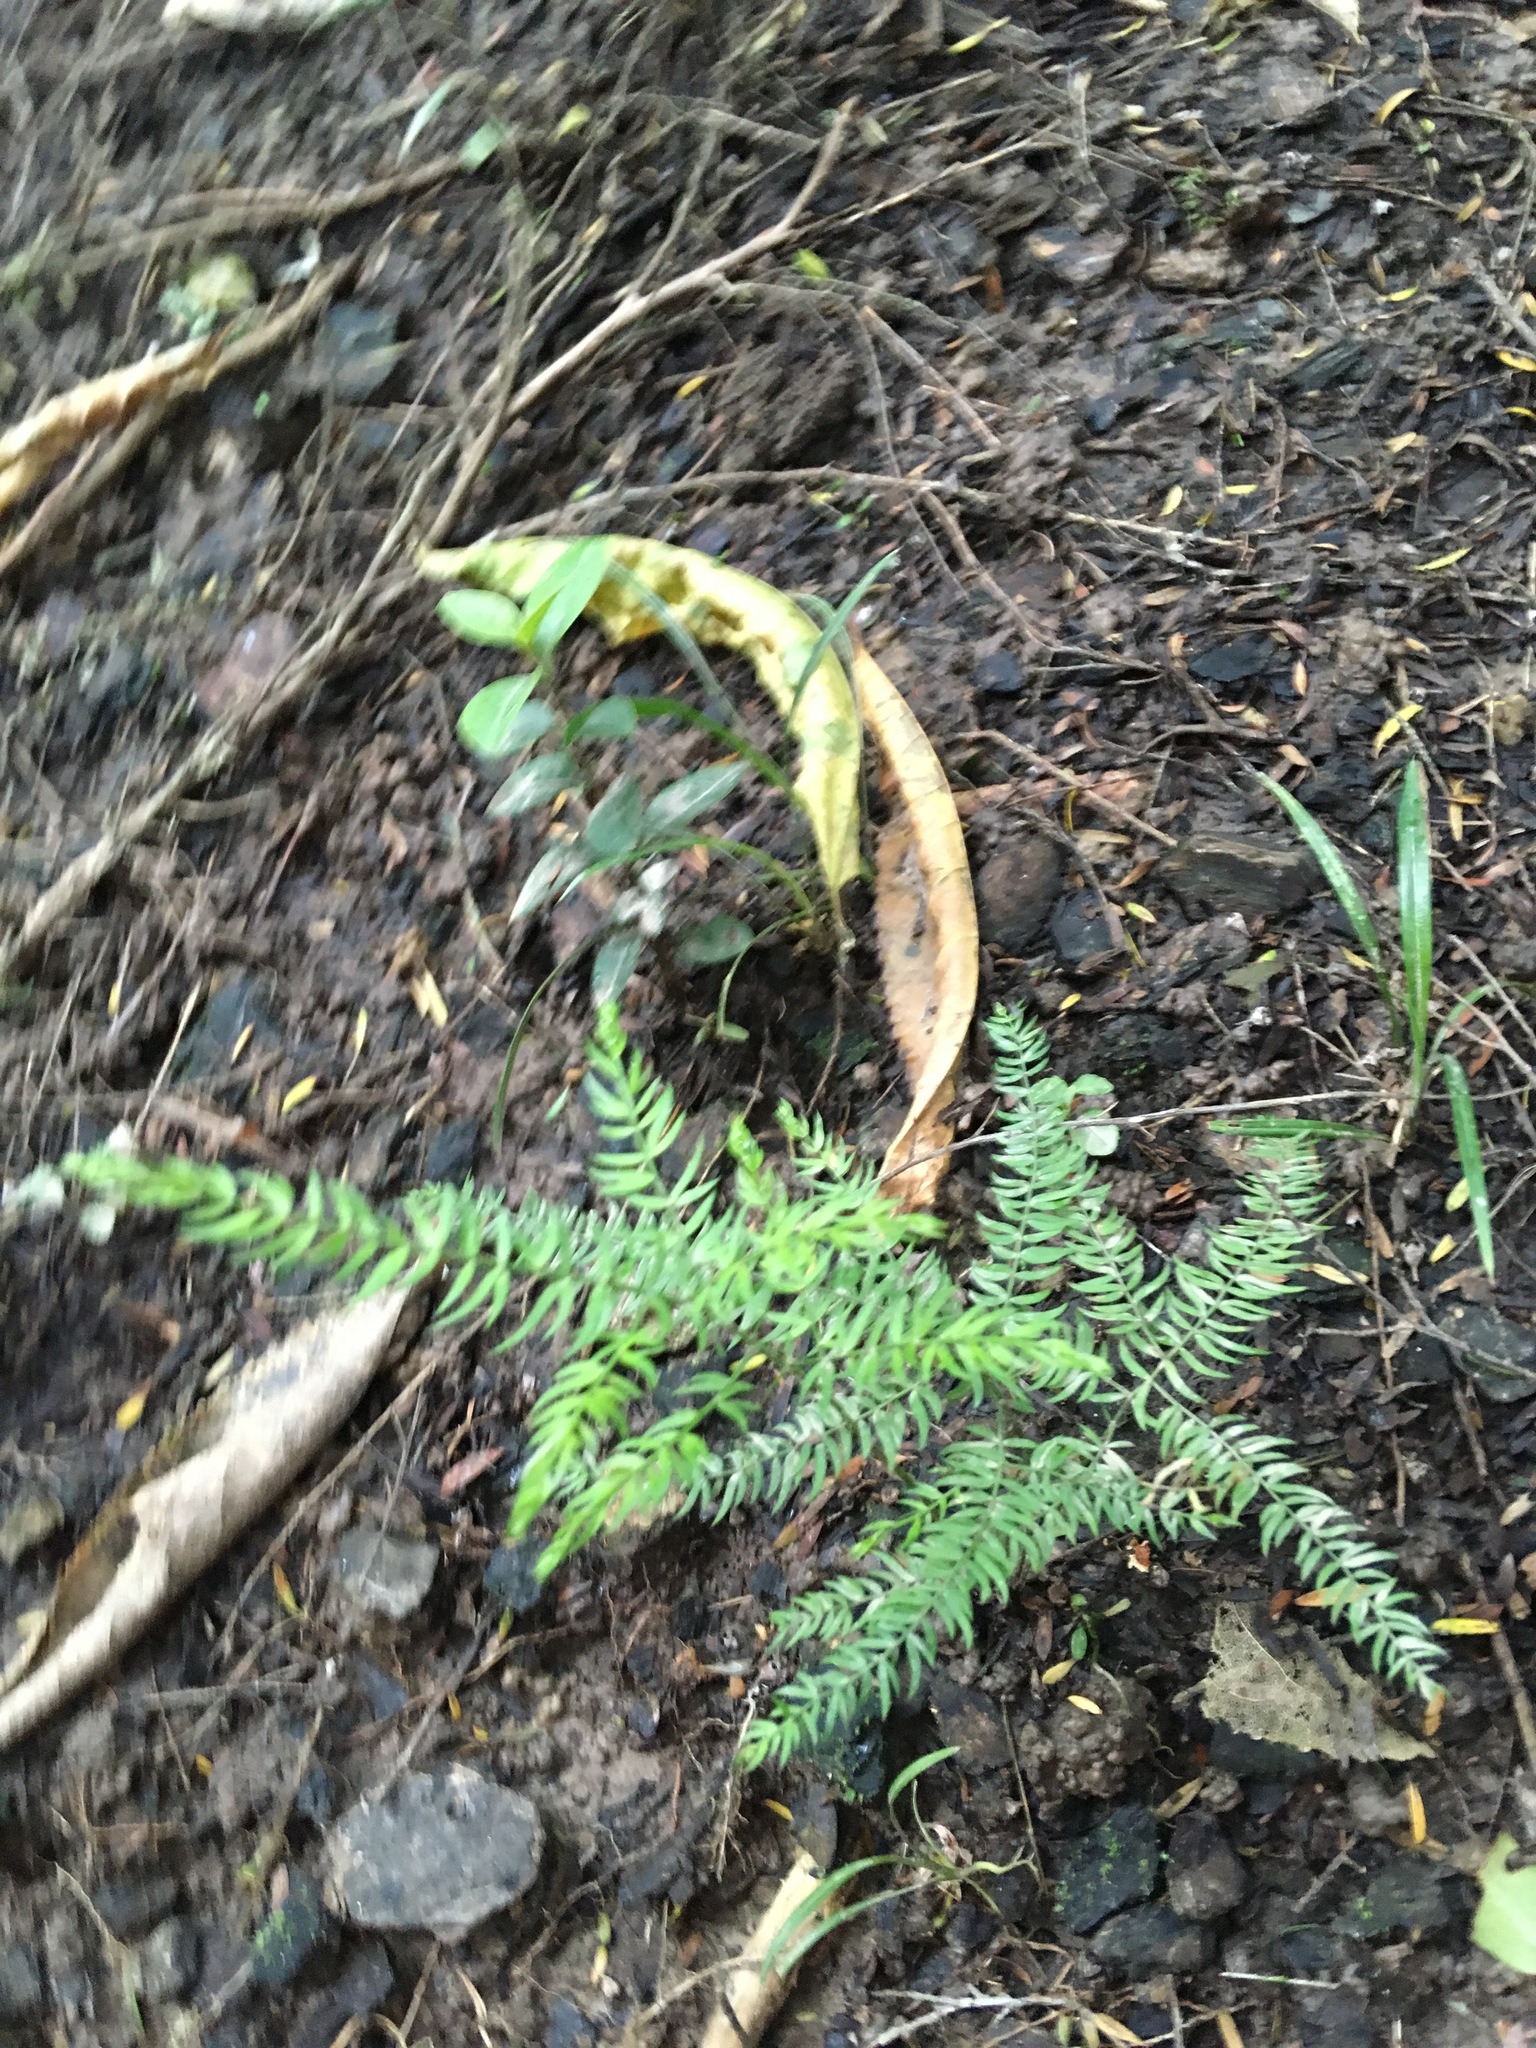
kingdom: Plantae
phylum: Tracheophyta
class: Liliopsida
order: Asparagales
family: Asparagaceae
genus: Asparagus
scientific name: Asparagus scandens
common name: Asparagus-fern
